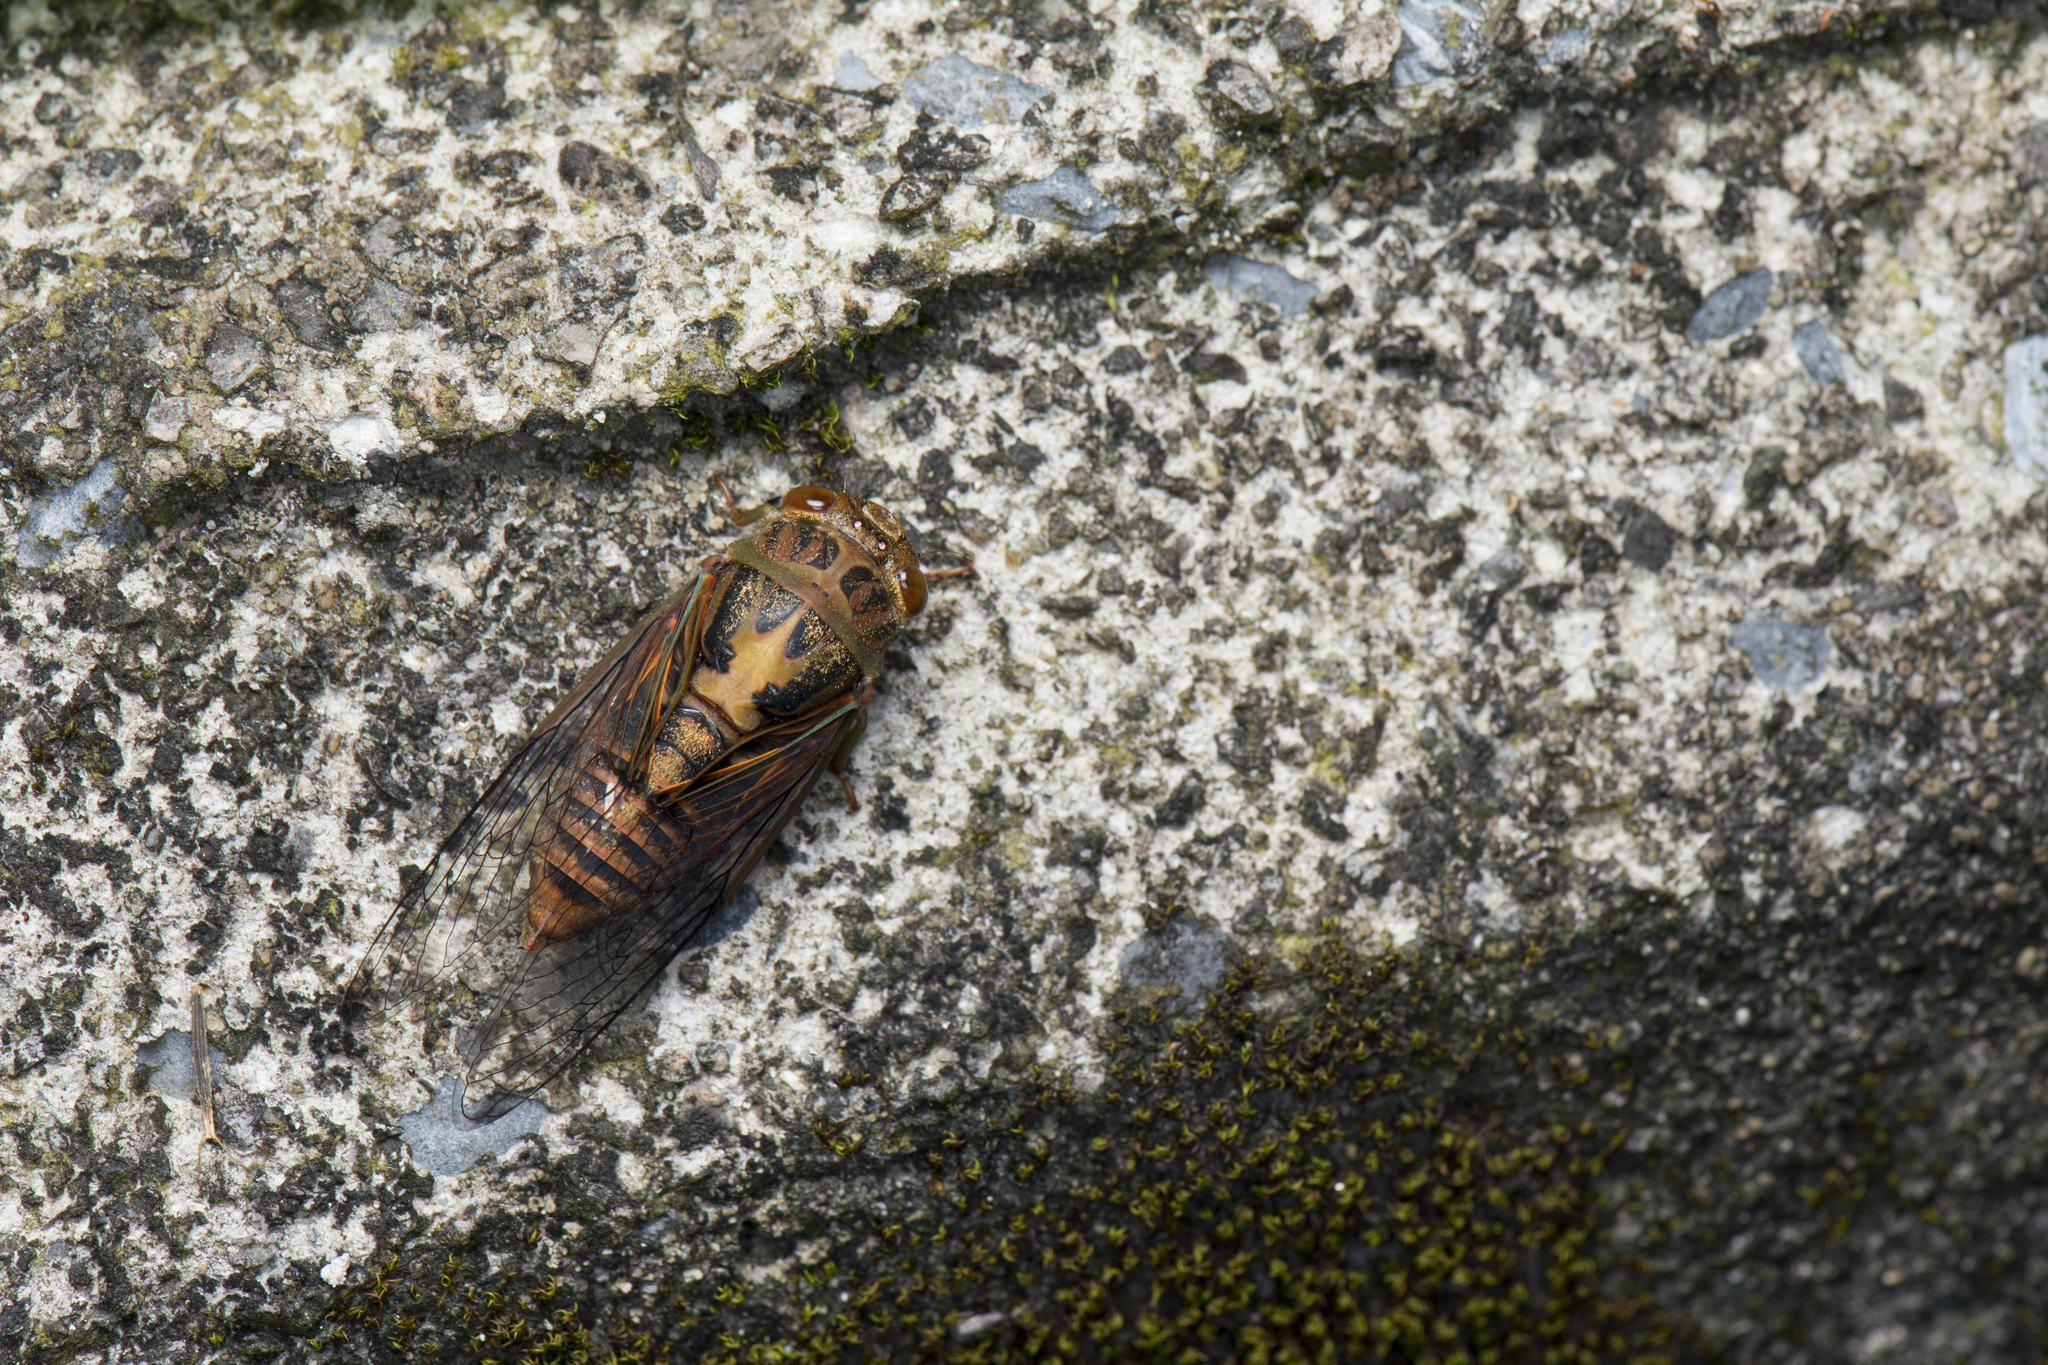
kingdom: Animalia
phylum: Arthropoda
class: Insecta
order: Hemiptera
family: Cicadidae
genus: Vagitanus
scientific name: Vagitanus terminalis
